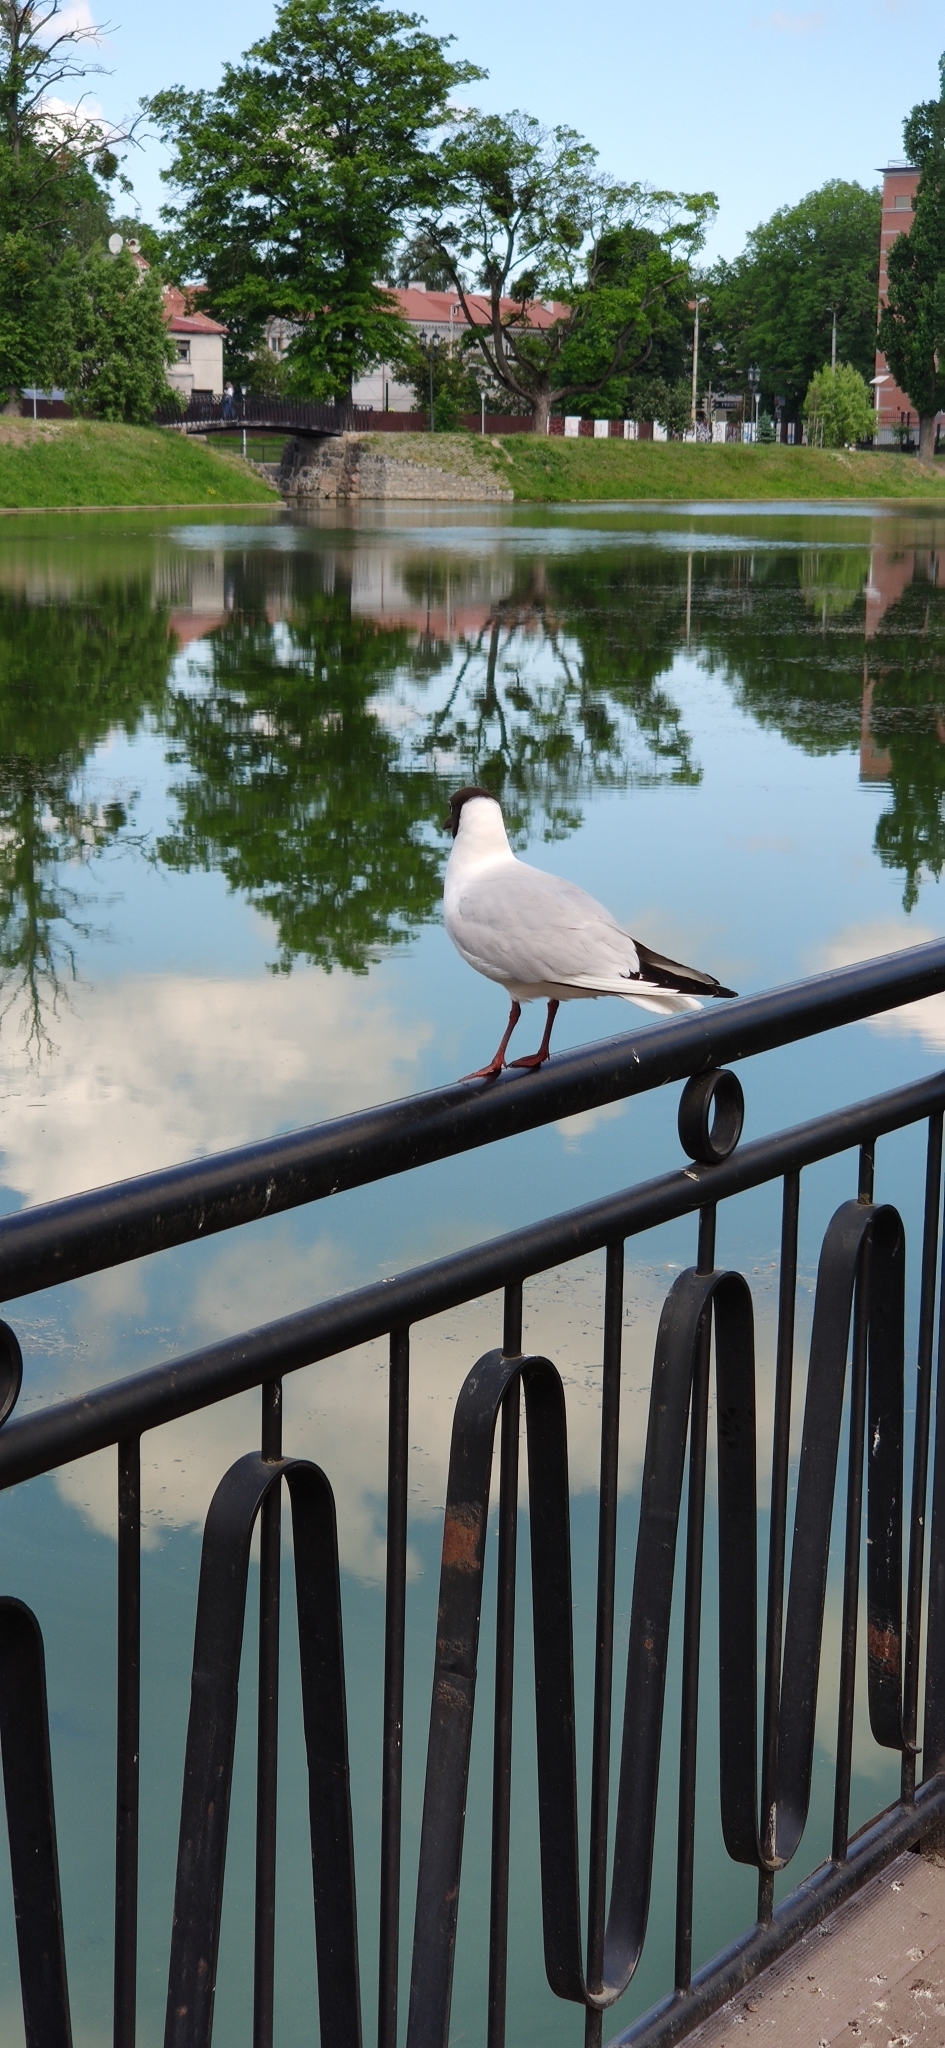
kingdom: Animalia
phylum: Chordata
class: Aves
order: Charadriiformes
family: Laridae
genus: Chroicocephalus
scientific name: Chroicocephalus ridibundus
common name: Black-headed gull
